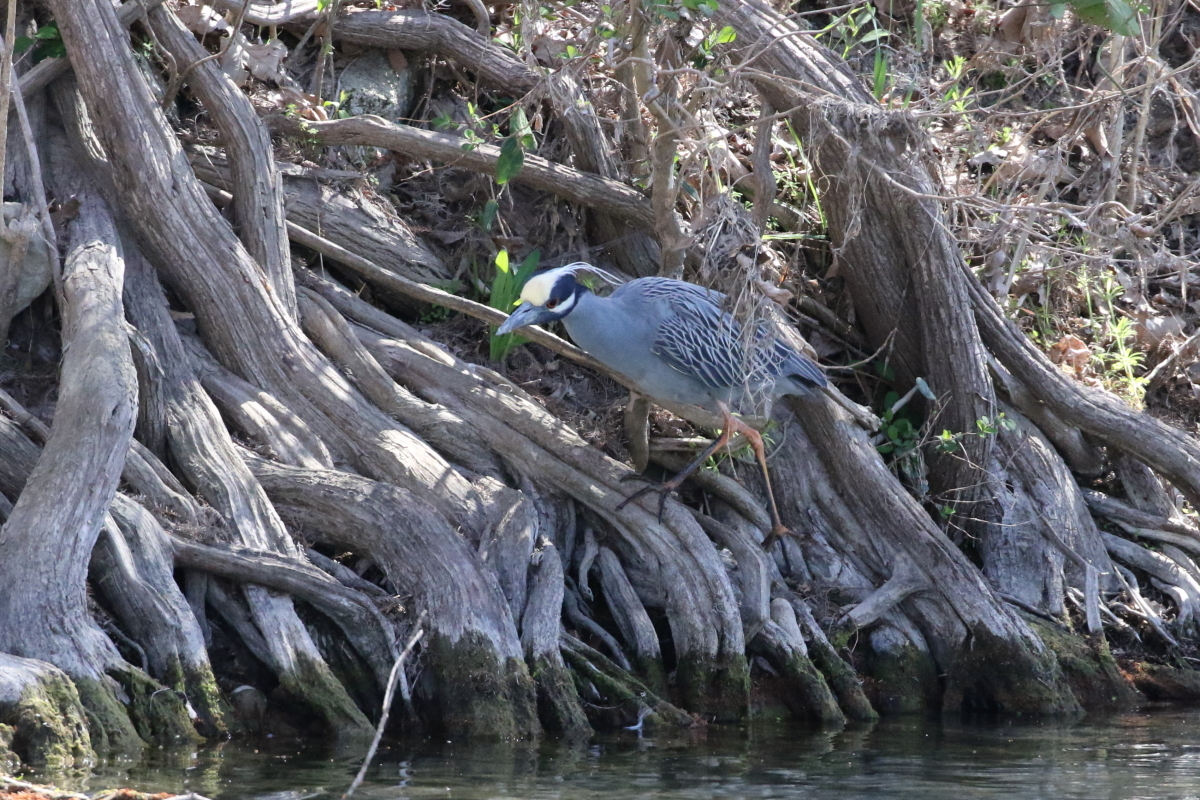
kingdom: Animalia
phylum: Chordata
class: Aves
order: Pelecaniformes
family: Ardeidae
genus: Nyctanassa
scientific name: Nyctanassa violacea
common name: Yellow-crowned night heron
